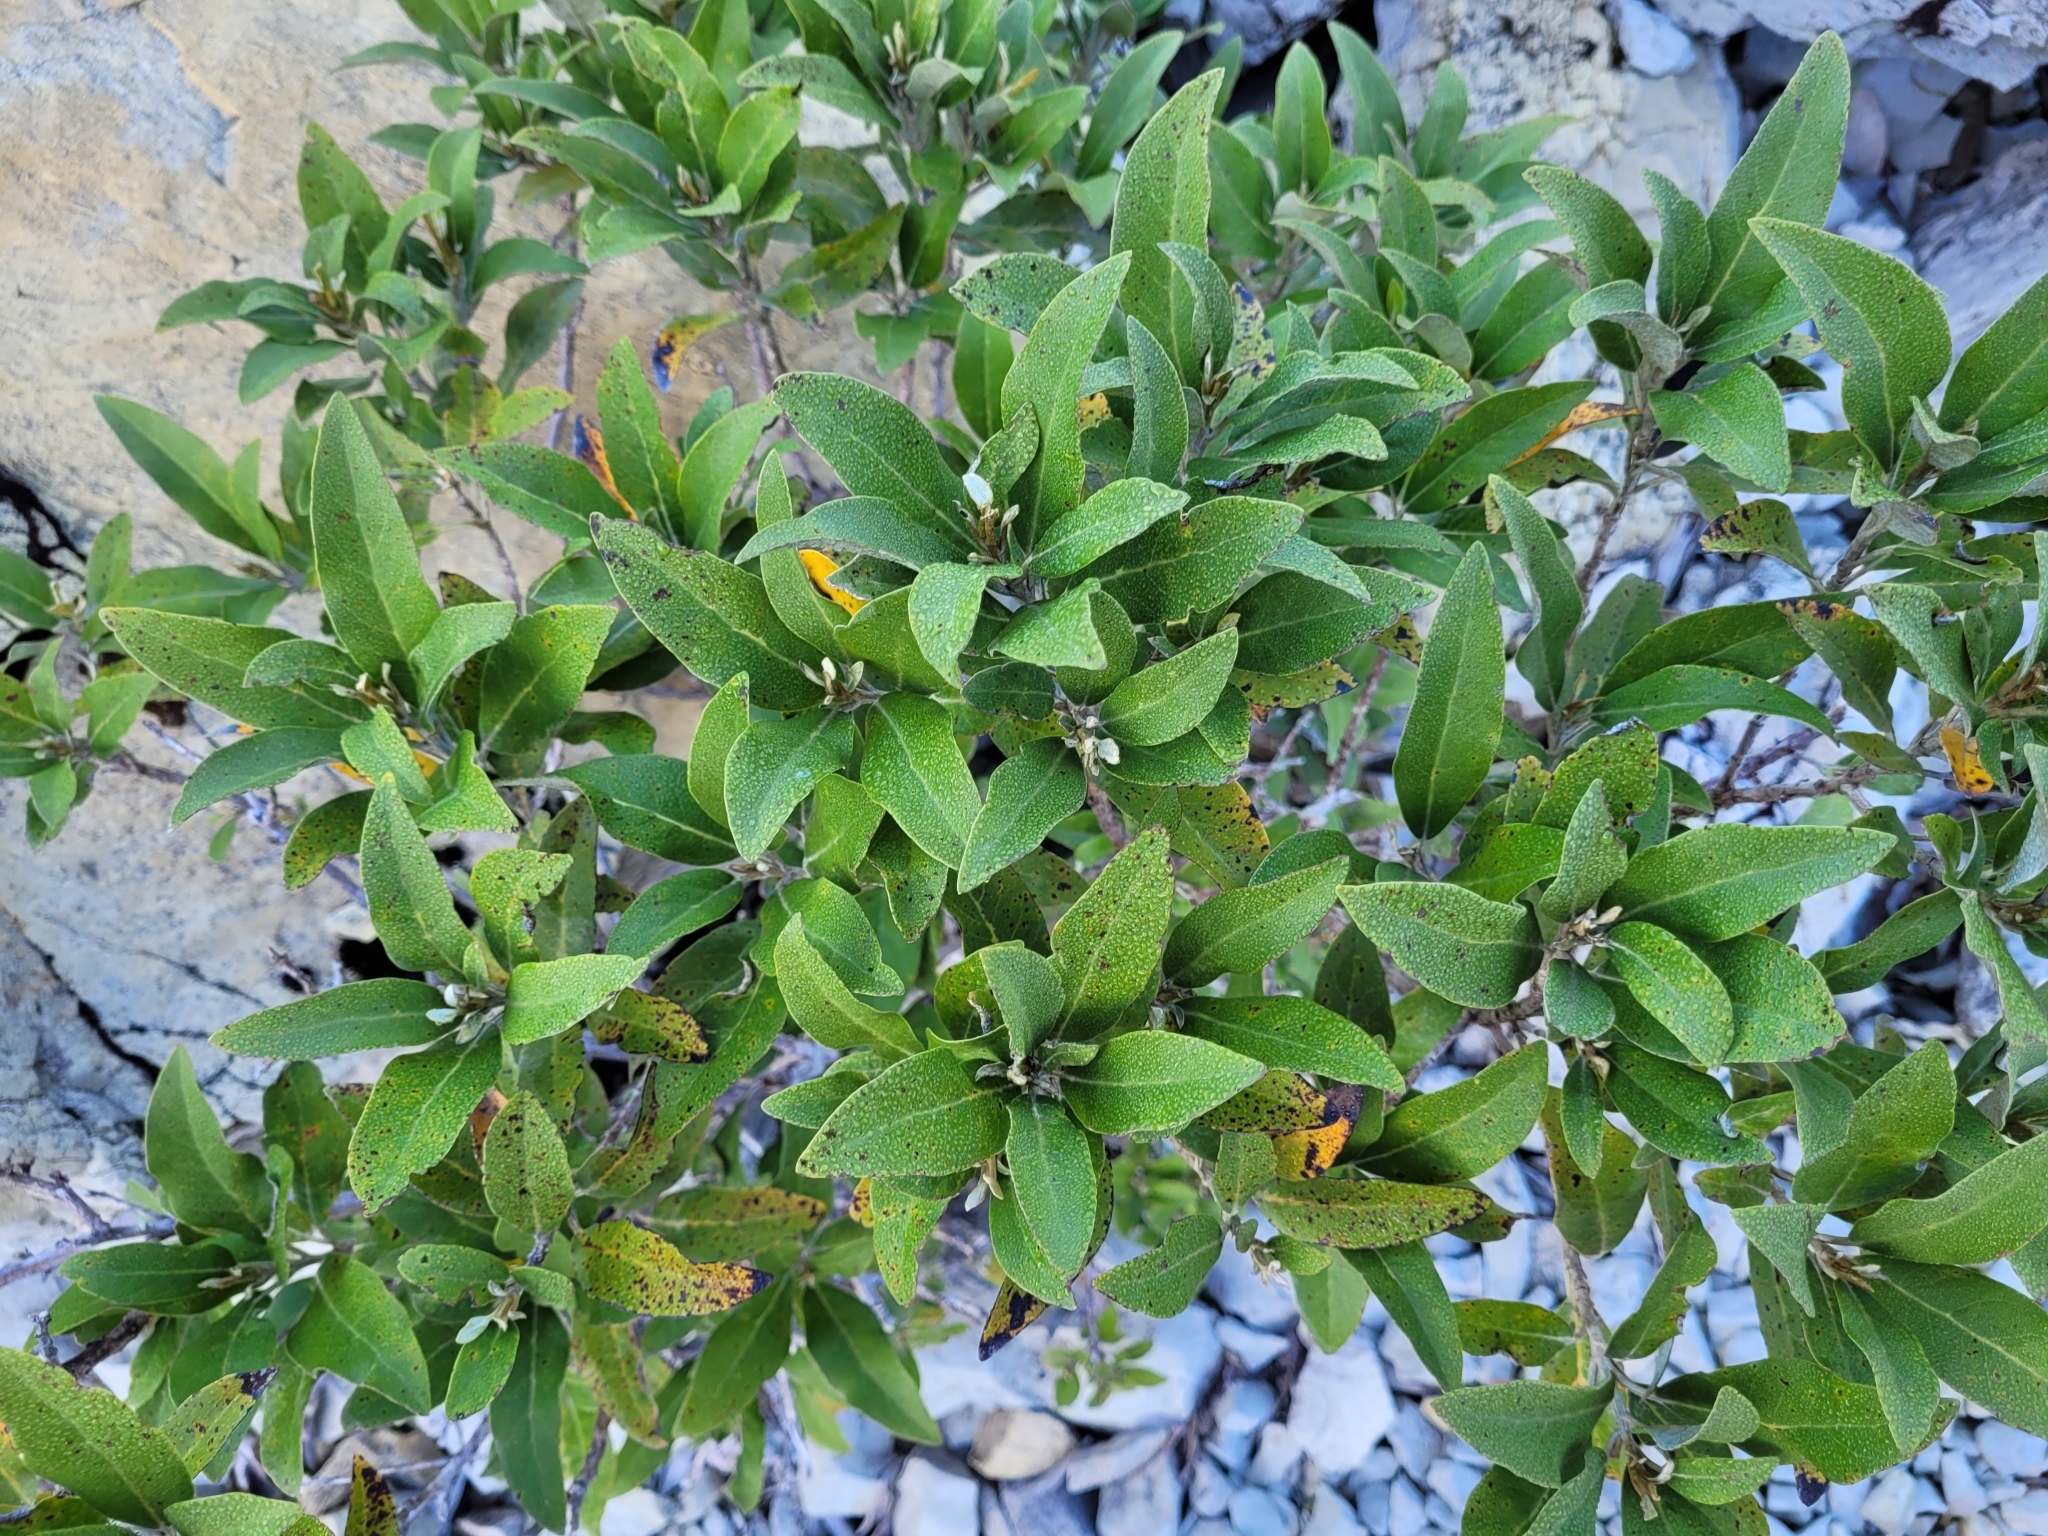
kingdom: Plantae
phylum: Tracheophyta
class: Magnoliopsida
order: Asterales
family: Asteraceae
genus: Olearia
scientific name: Olearia avicenniifolia
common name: Mangrove-leaf daisybush
